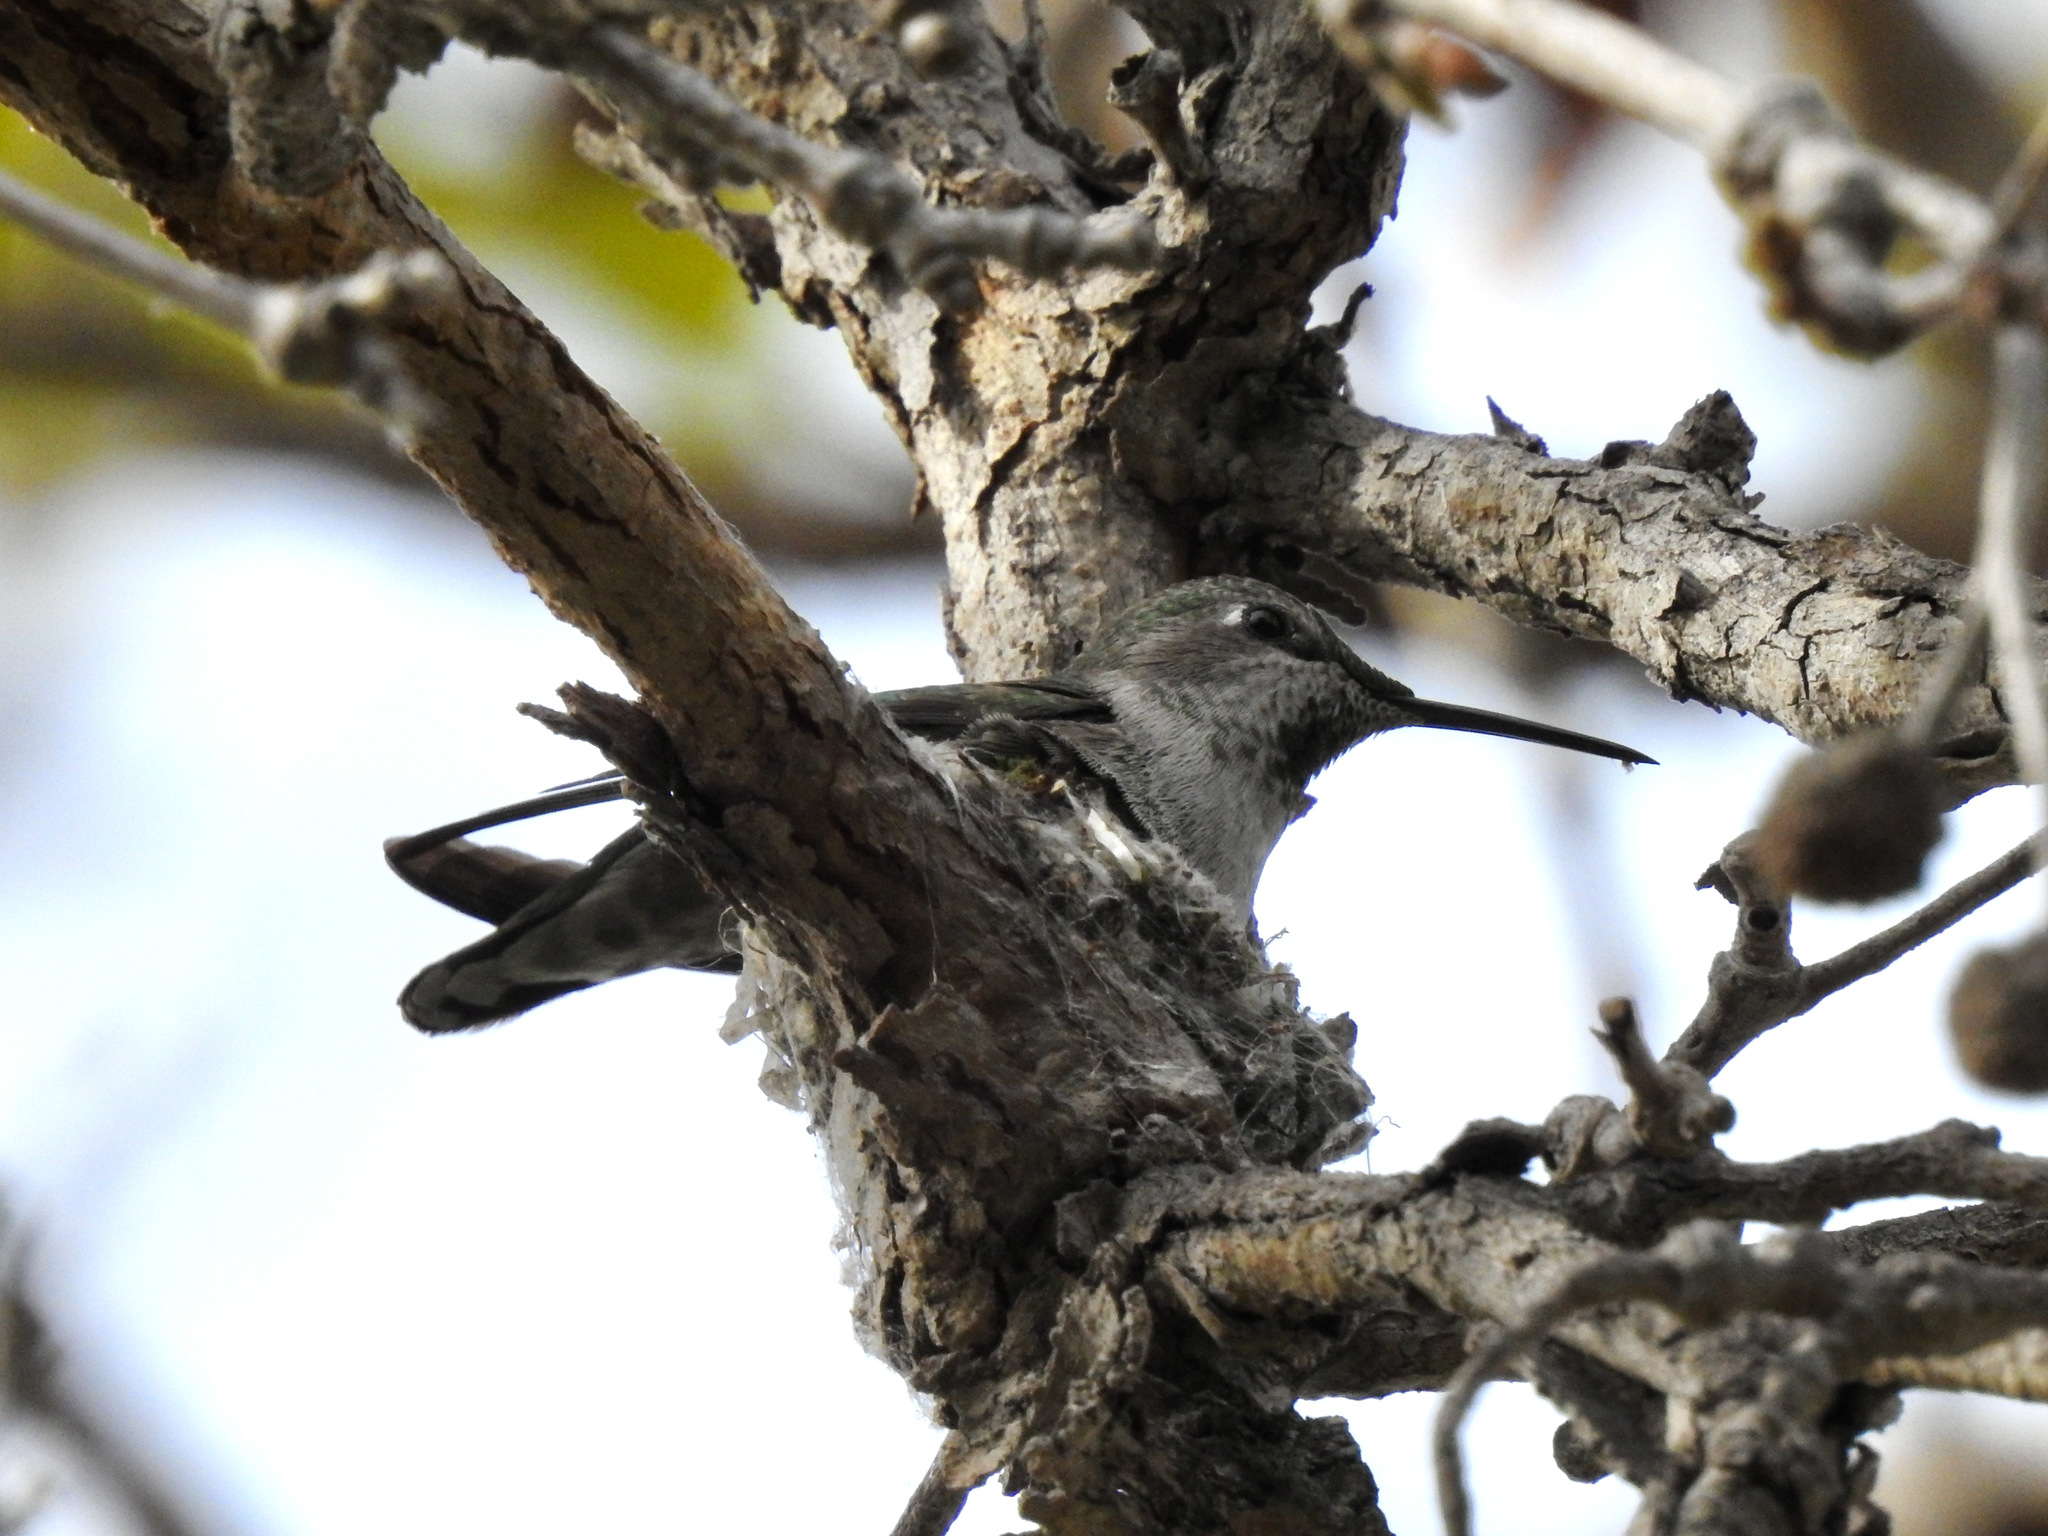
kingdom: Animalia
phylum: Chordata
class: Aves
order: Apodiformes
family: Trochilidae
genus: Calypte
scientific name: Calypte anna
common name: Anna's hummingbird
